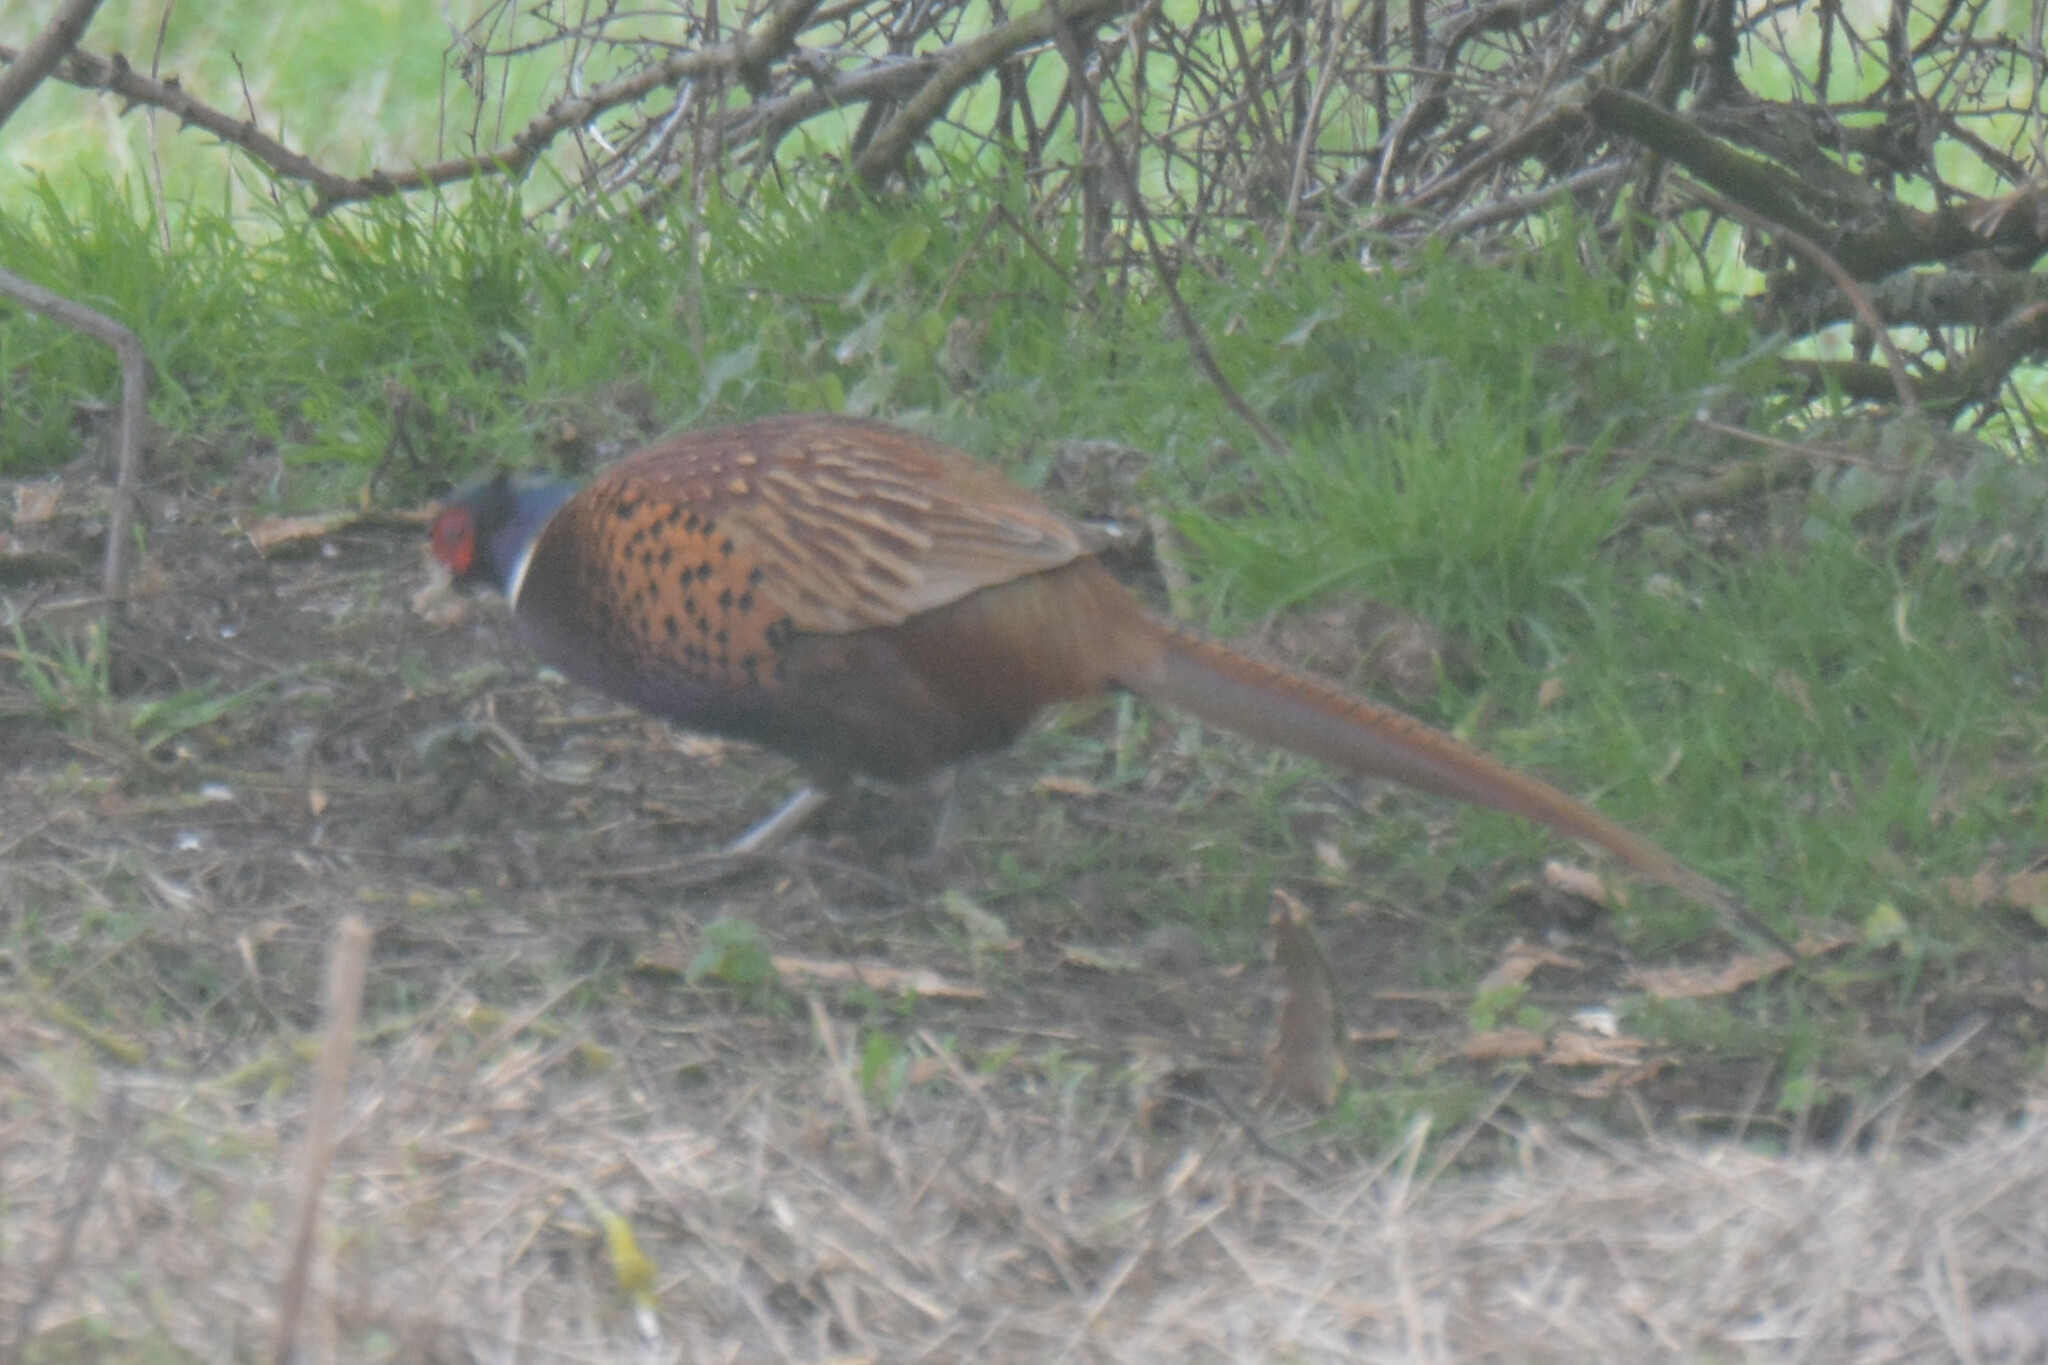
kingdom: Animalia
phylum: Chordata
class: Aves
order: Galliformes
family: Phasianidae
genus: Phasianus
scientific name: Phasianus colchicus
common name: Common pheasant
